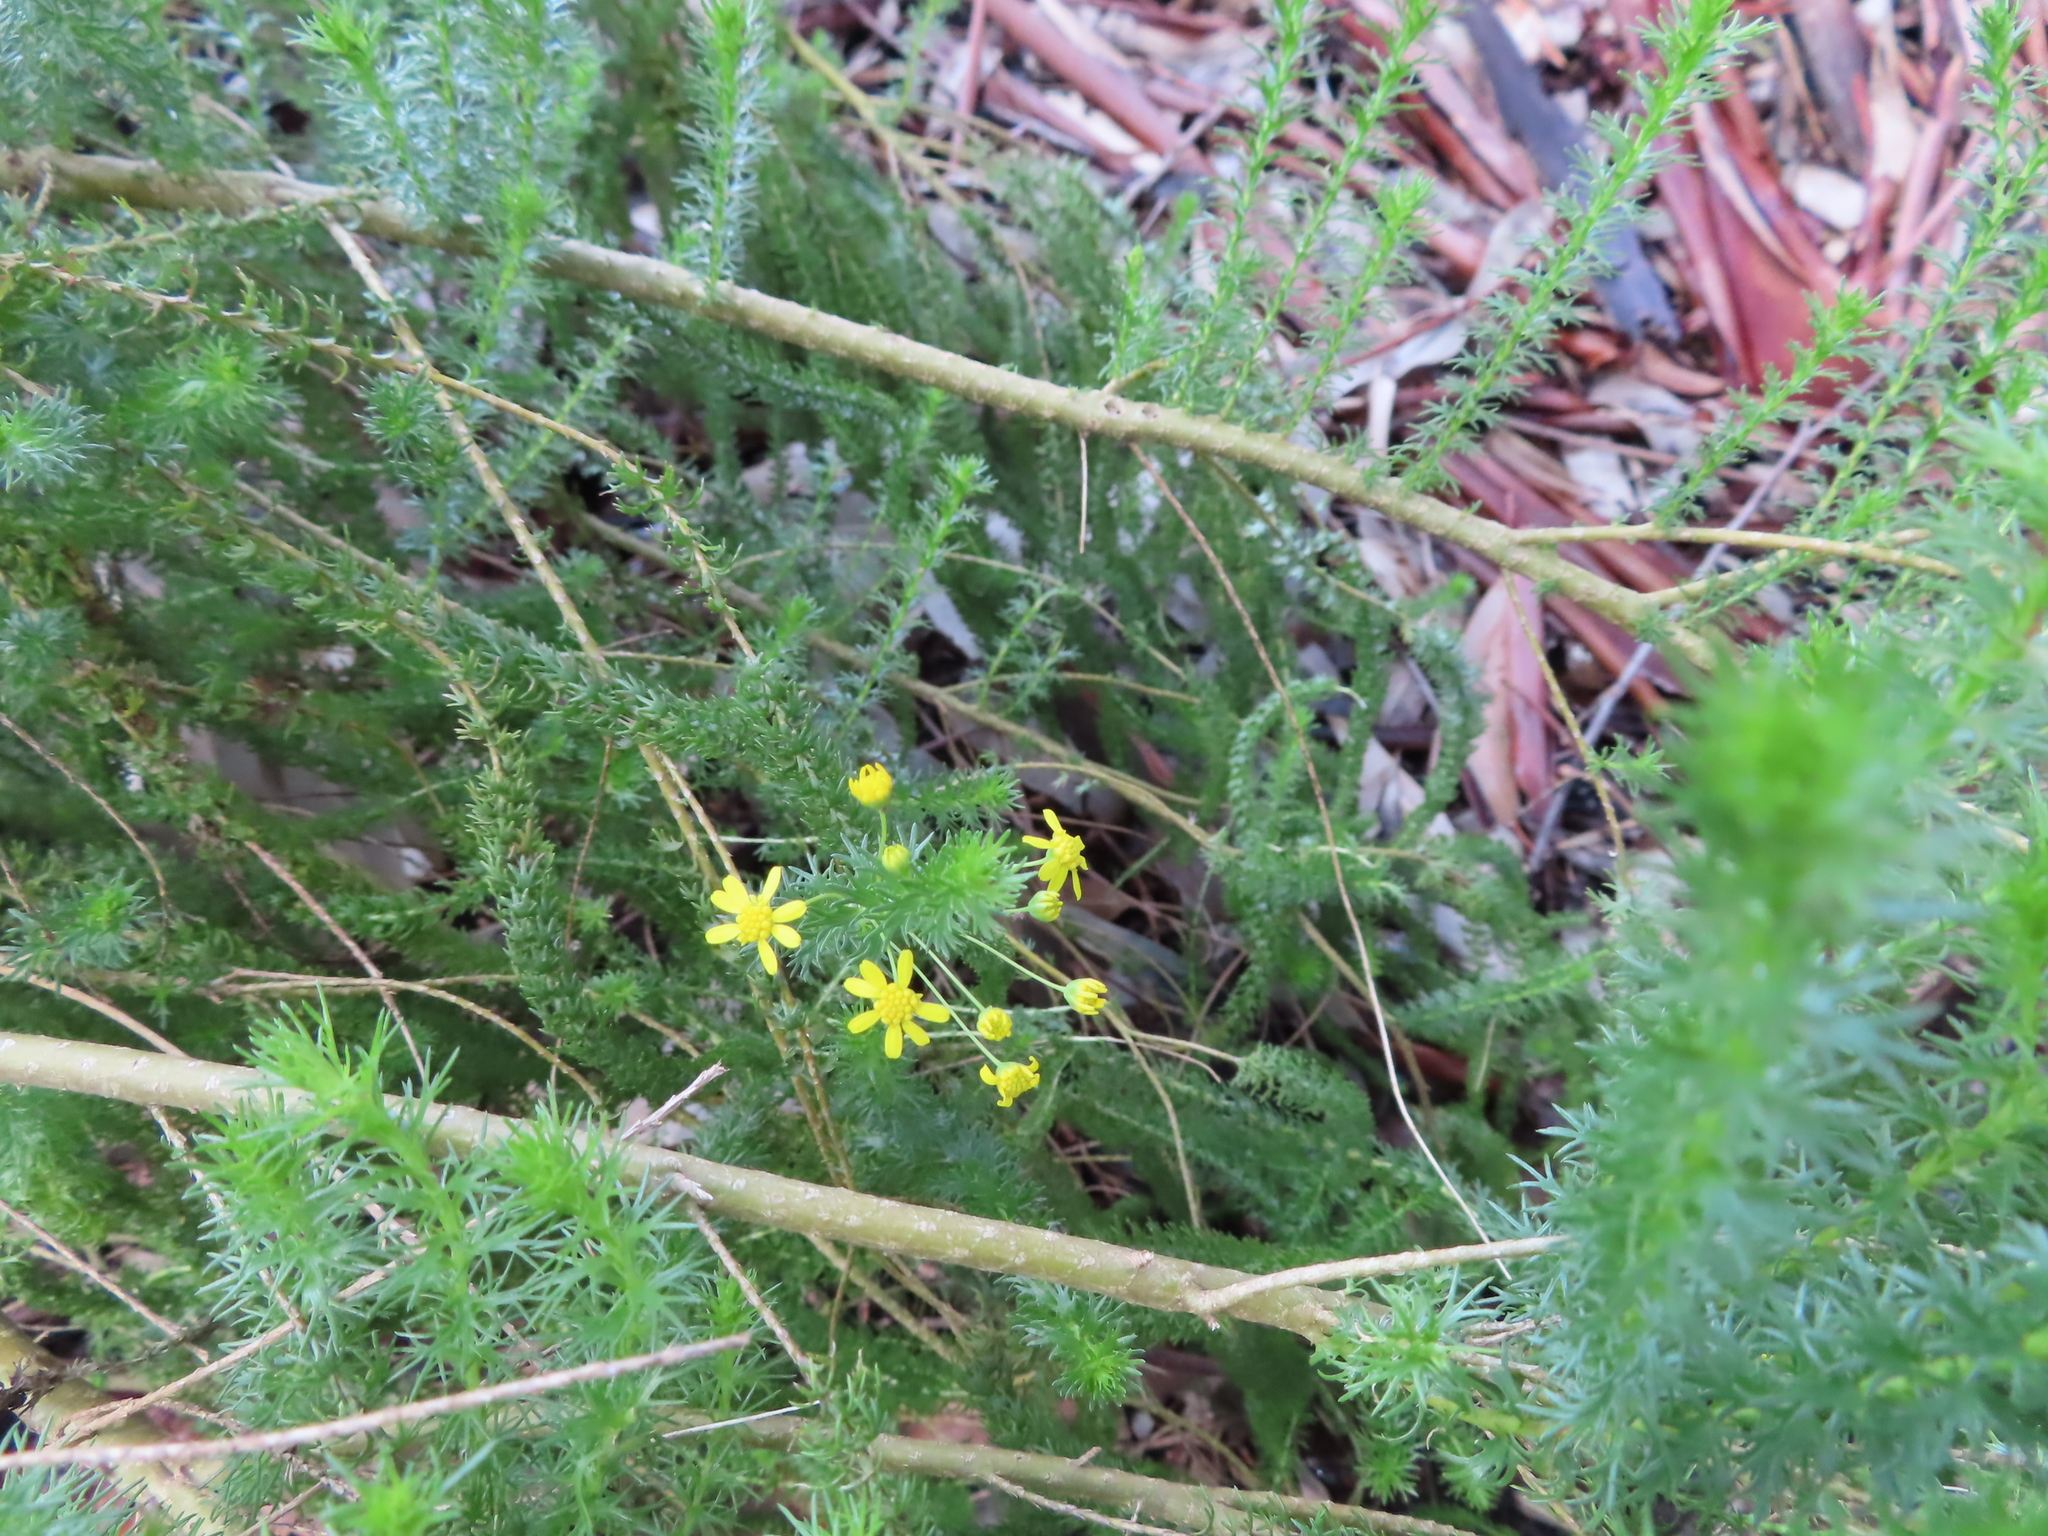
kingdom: Plantae
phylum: Tracheophyta
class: Magnoliopsida
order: Asterales
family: Asteraceae
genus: Euryops
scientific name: Euryops virgineus
